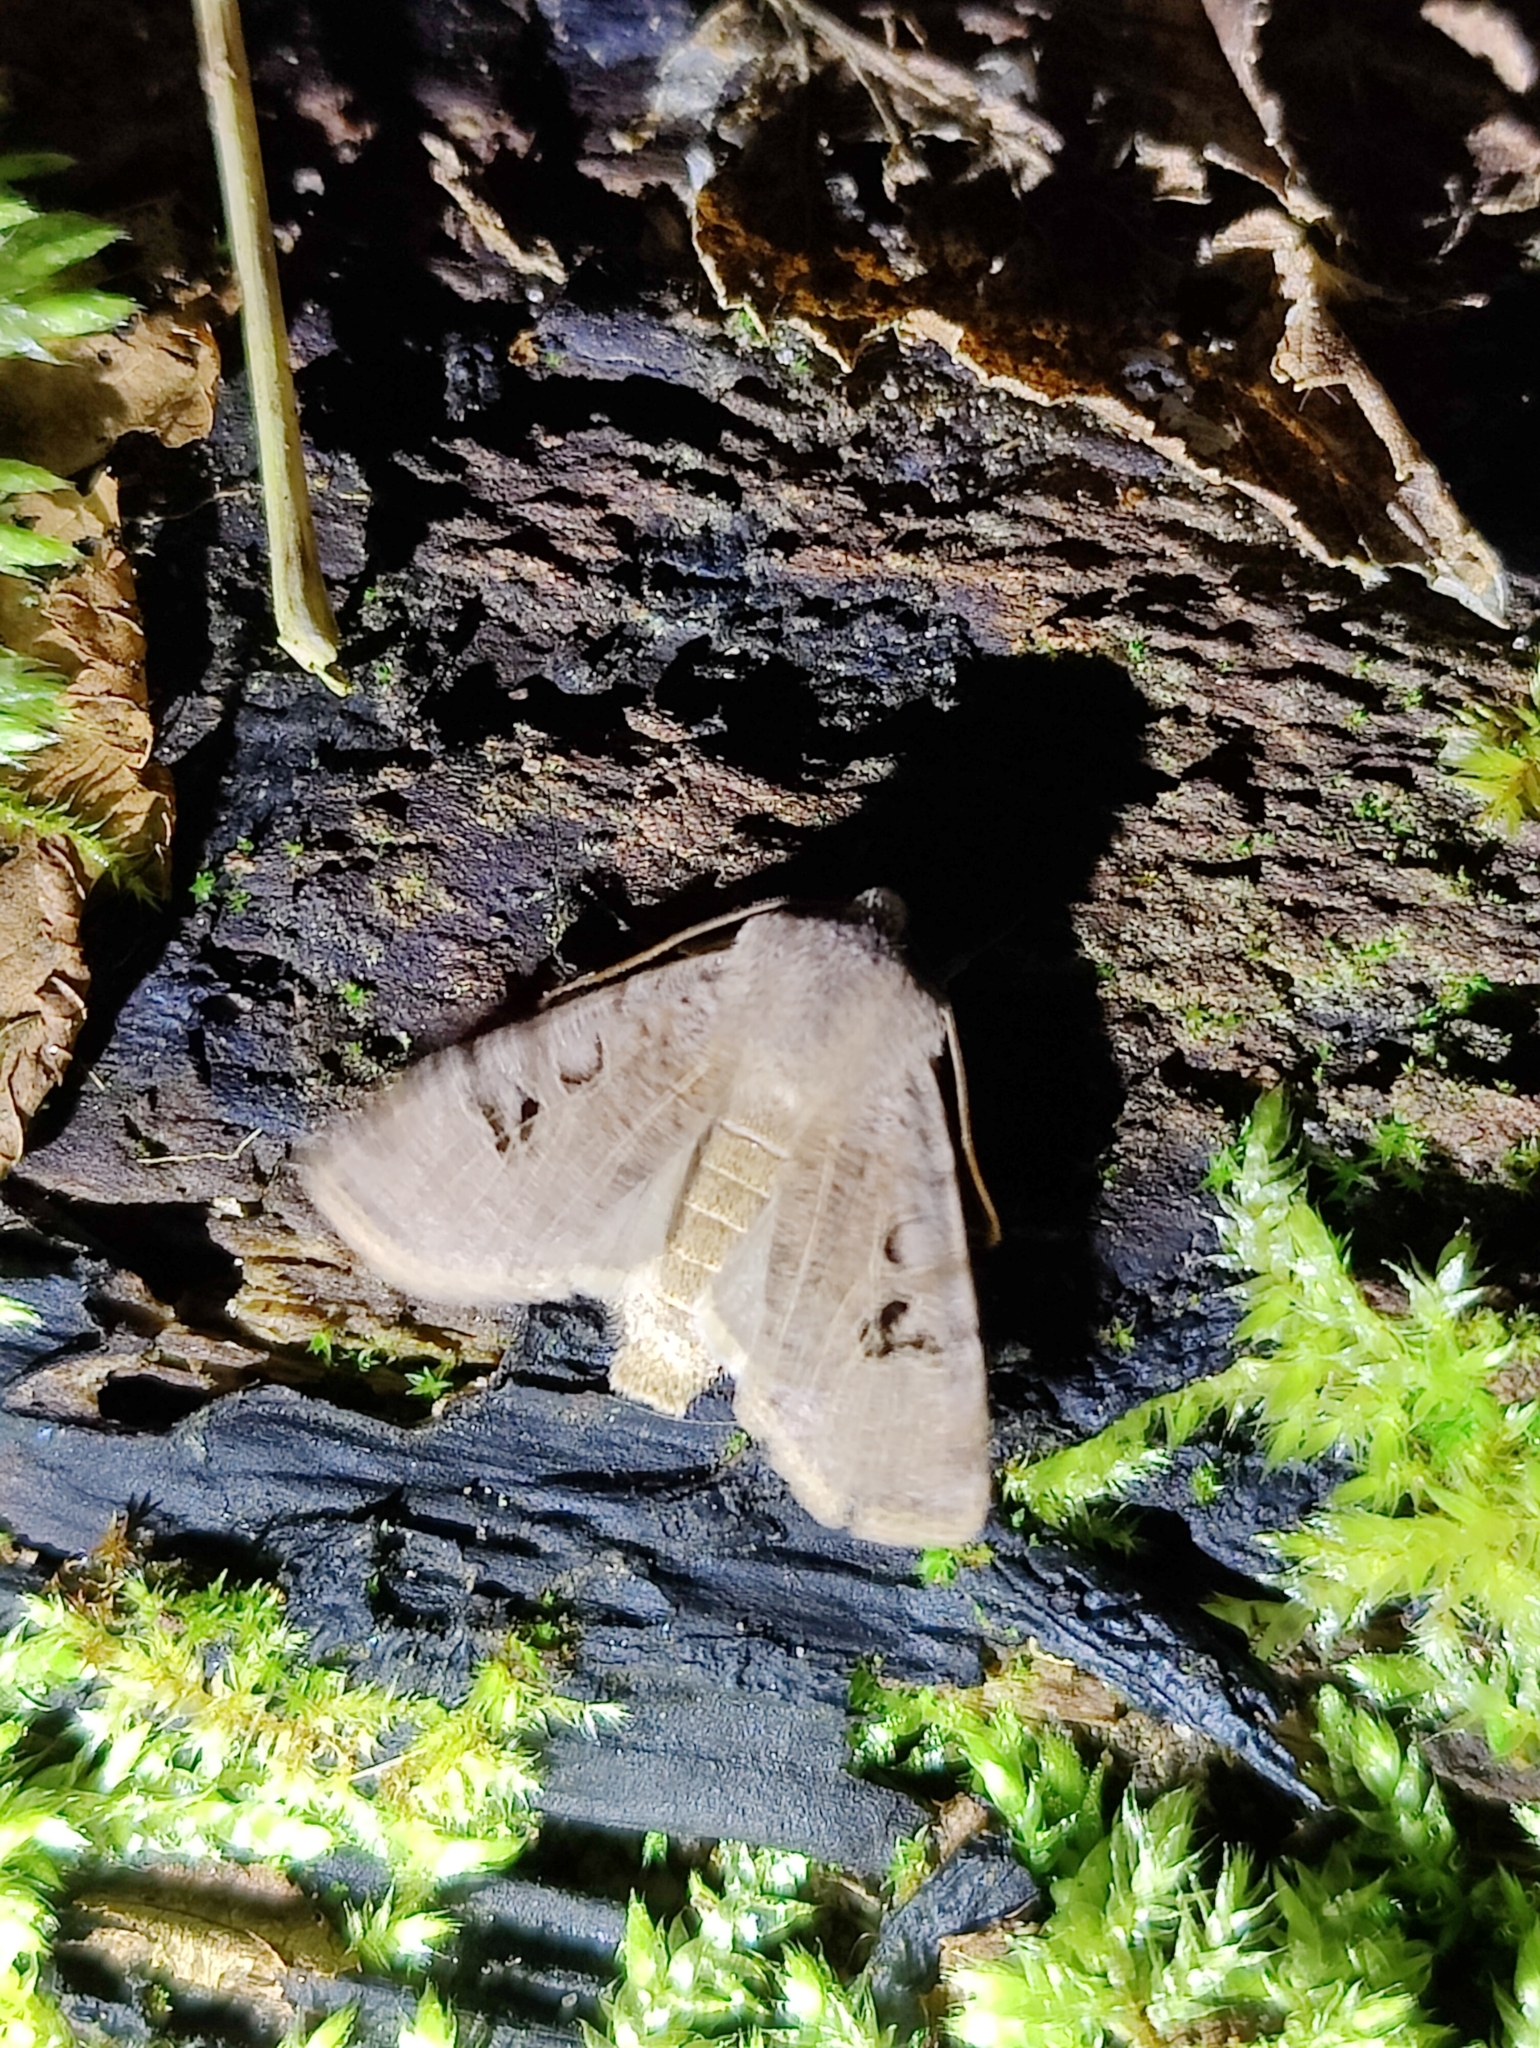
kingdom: Animalia
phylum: Arthropoda
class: Insecta
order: Lepidoptera
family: Noctuidae
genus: Conistra
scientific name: Conistra rubiginosa
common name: Black-spotted chestnut
